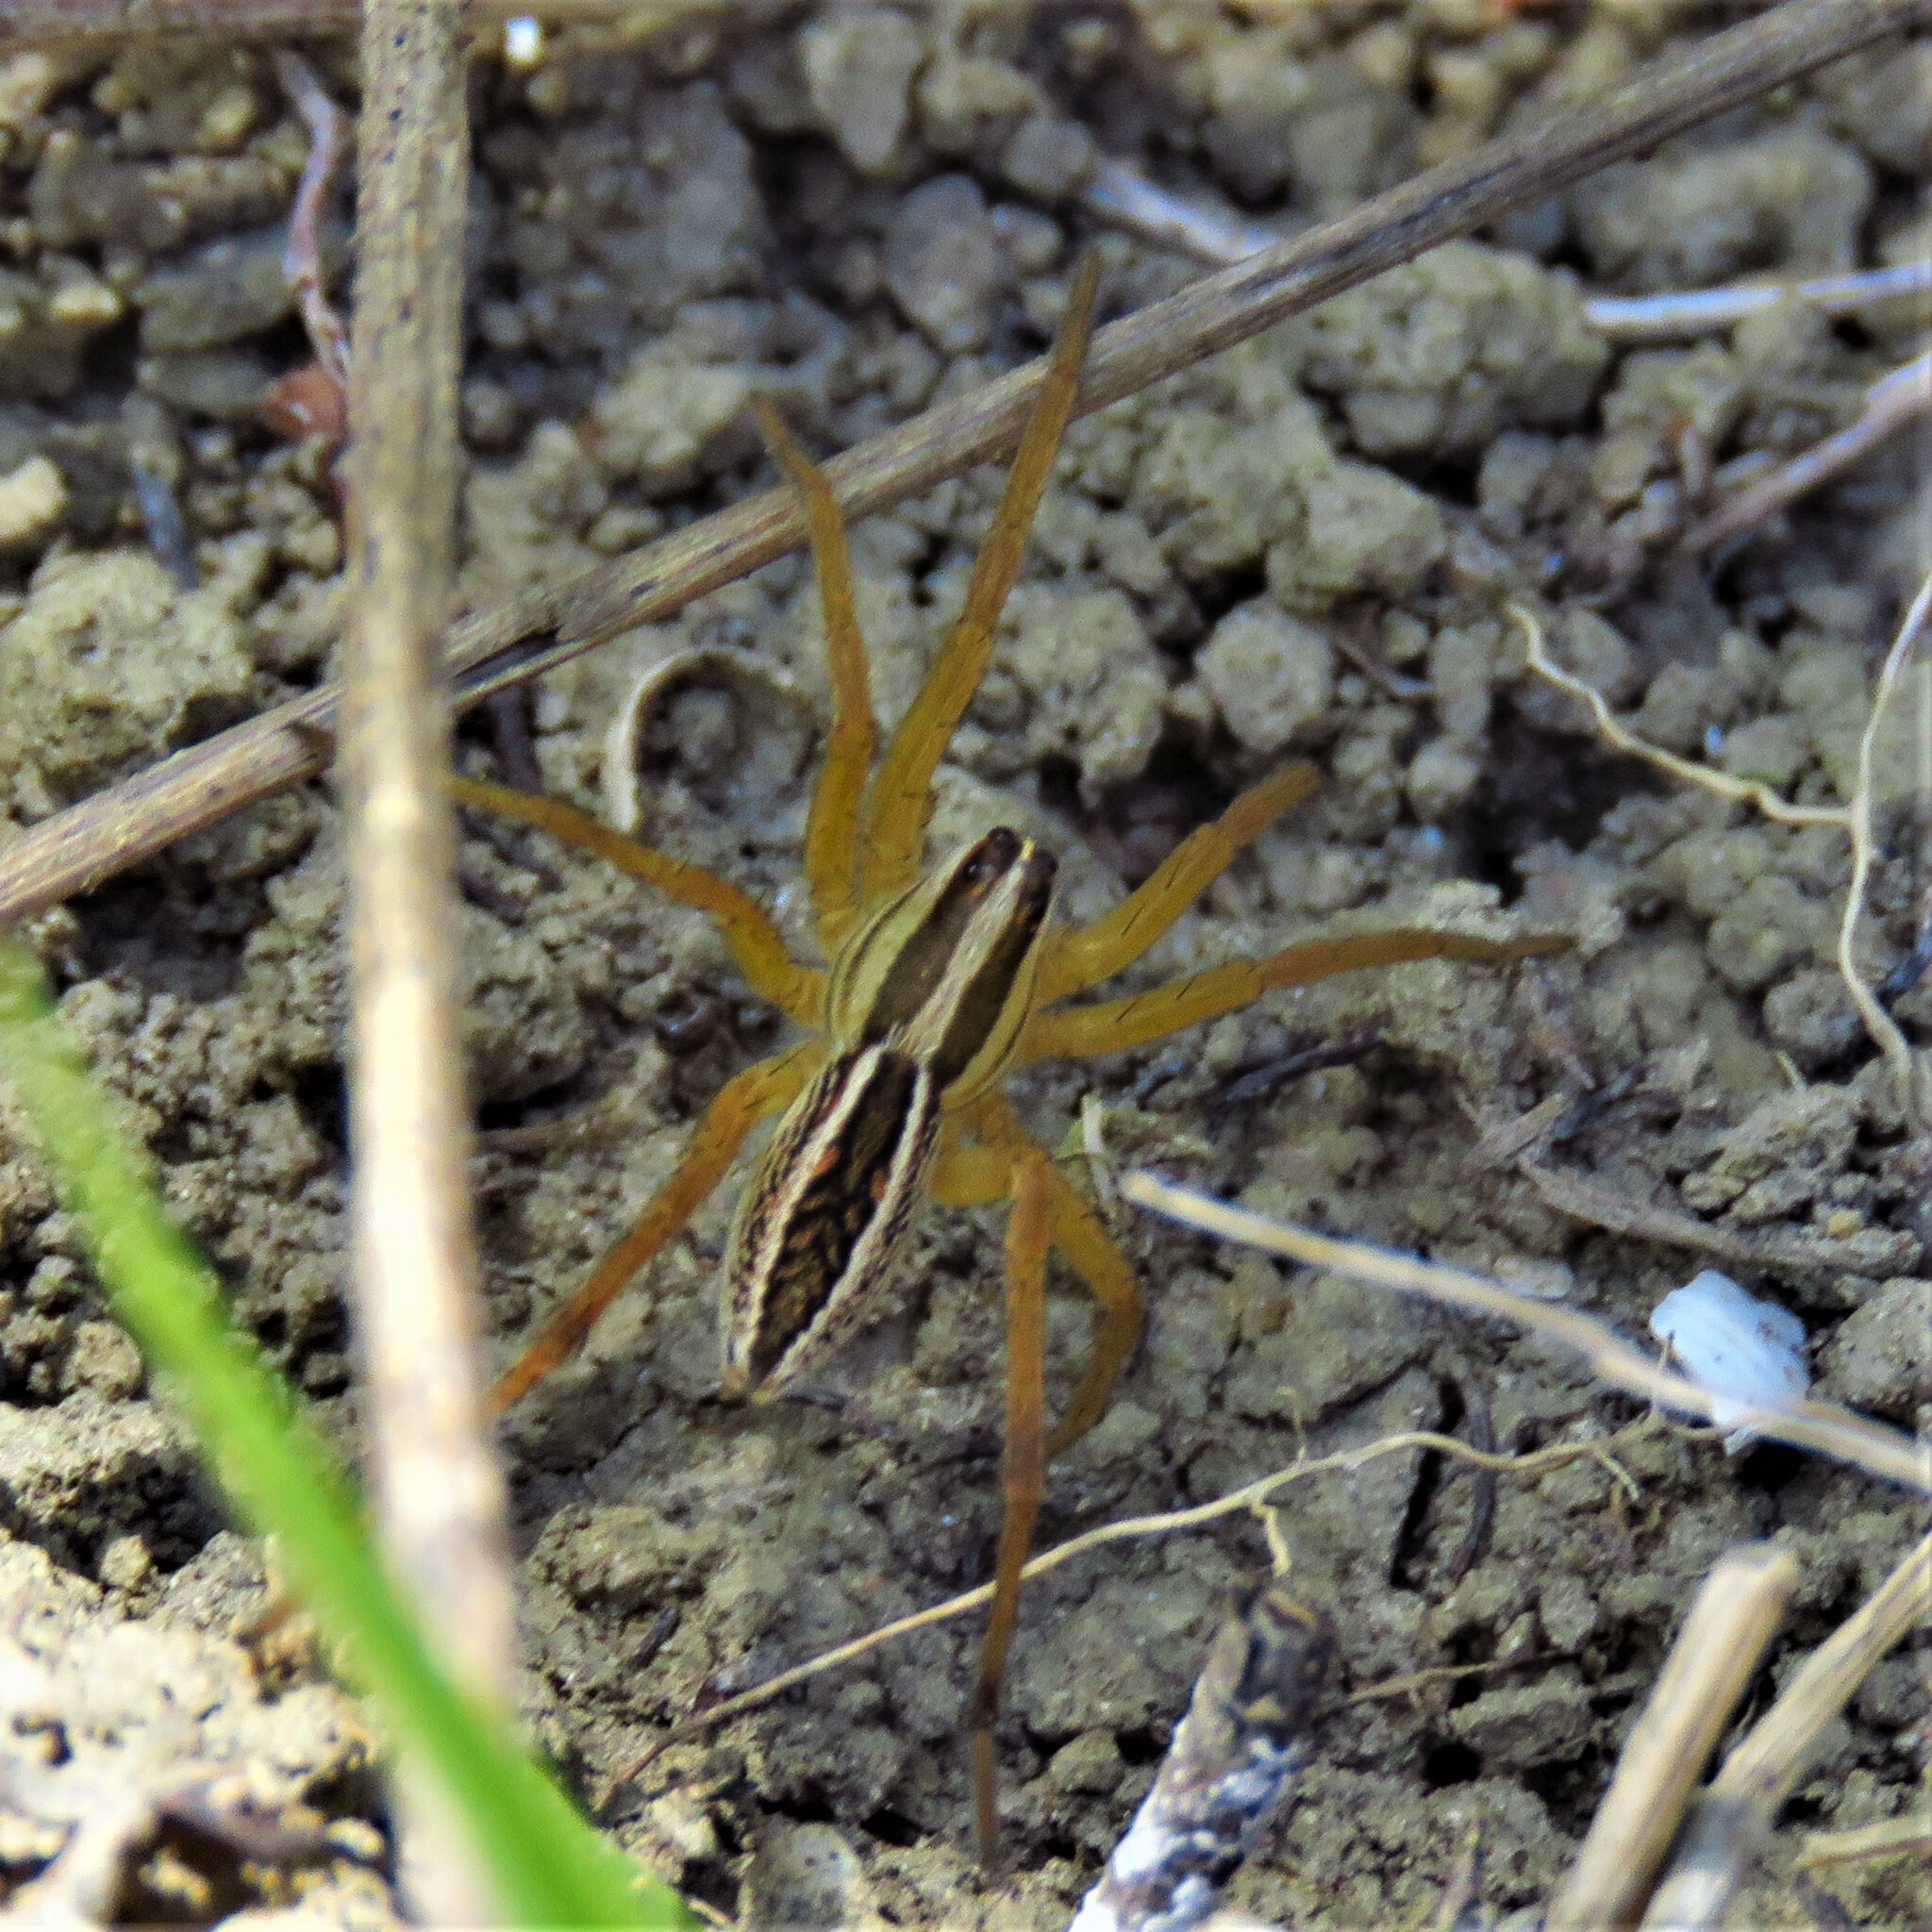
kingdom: Animalia
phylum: Arthropoda
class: Arachnida
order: Araneae
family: Lycosidae
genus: Rabidosa
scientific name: Rabidosa rabida
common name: Rabid wolf spider
